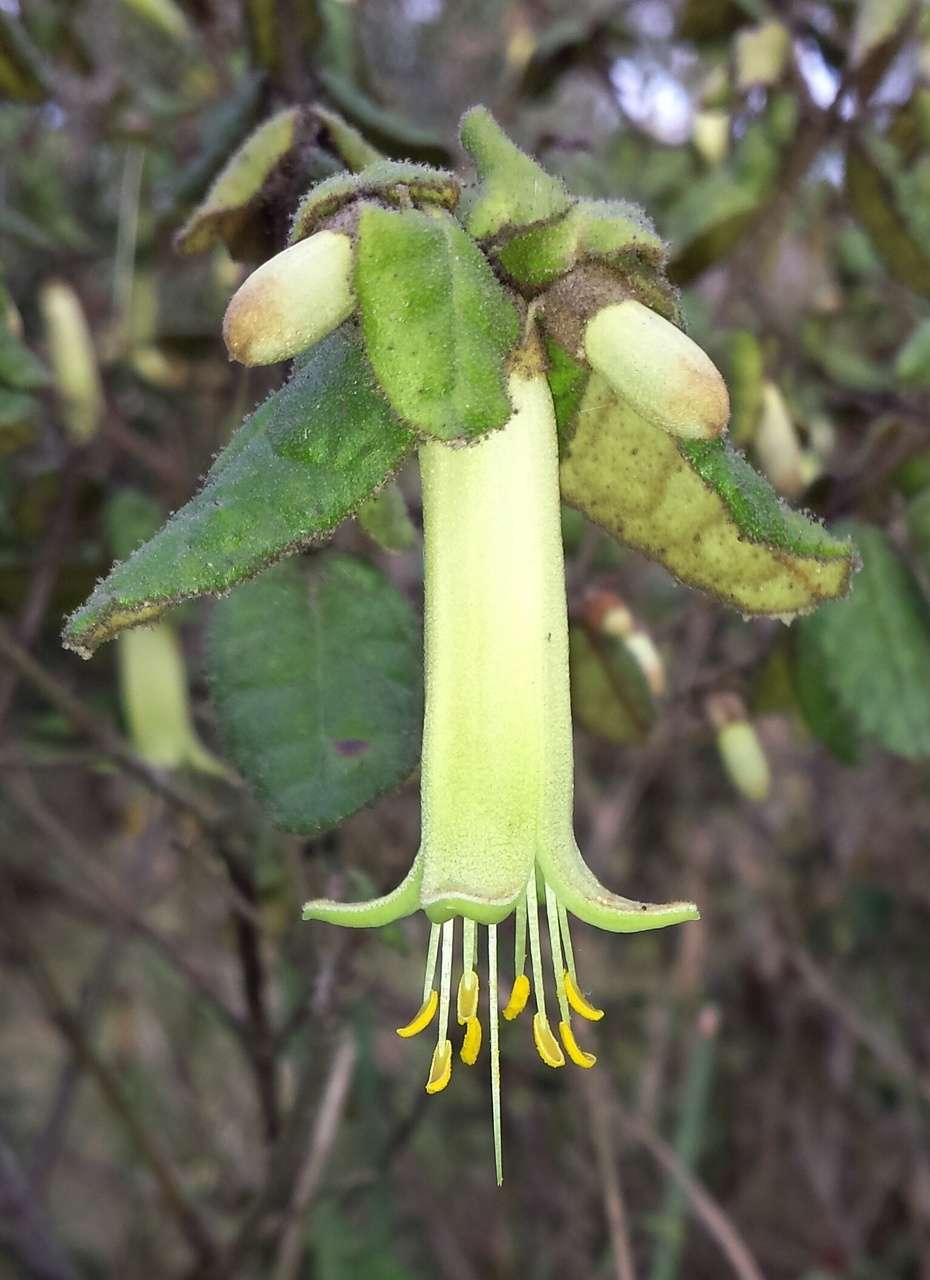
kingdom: Plantae
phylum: Tracheophyta
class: Magnoliopsida
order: Sapindales
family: Rutaceae
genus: Correa
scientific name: Correa reflexa
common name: Common correa
